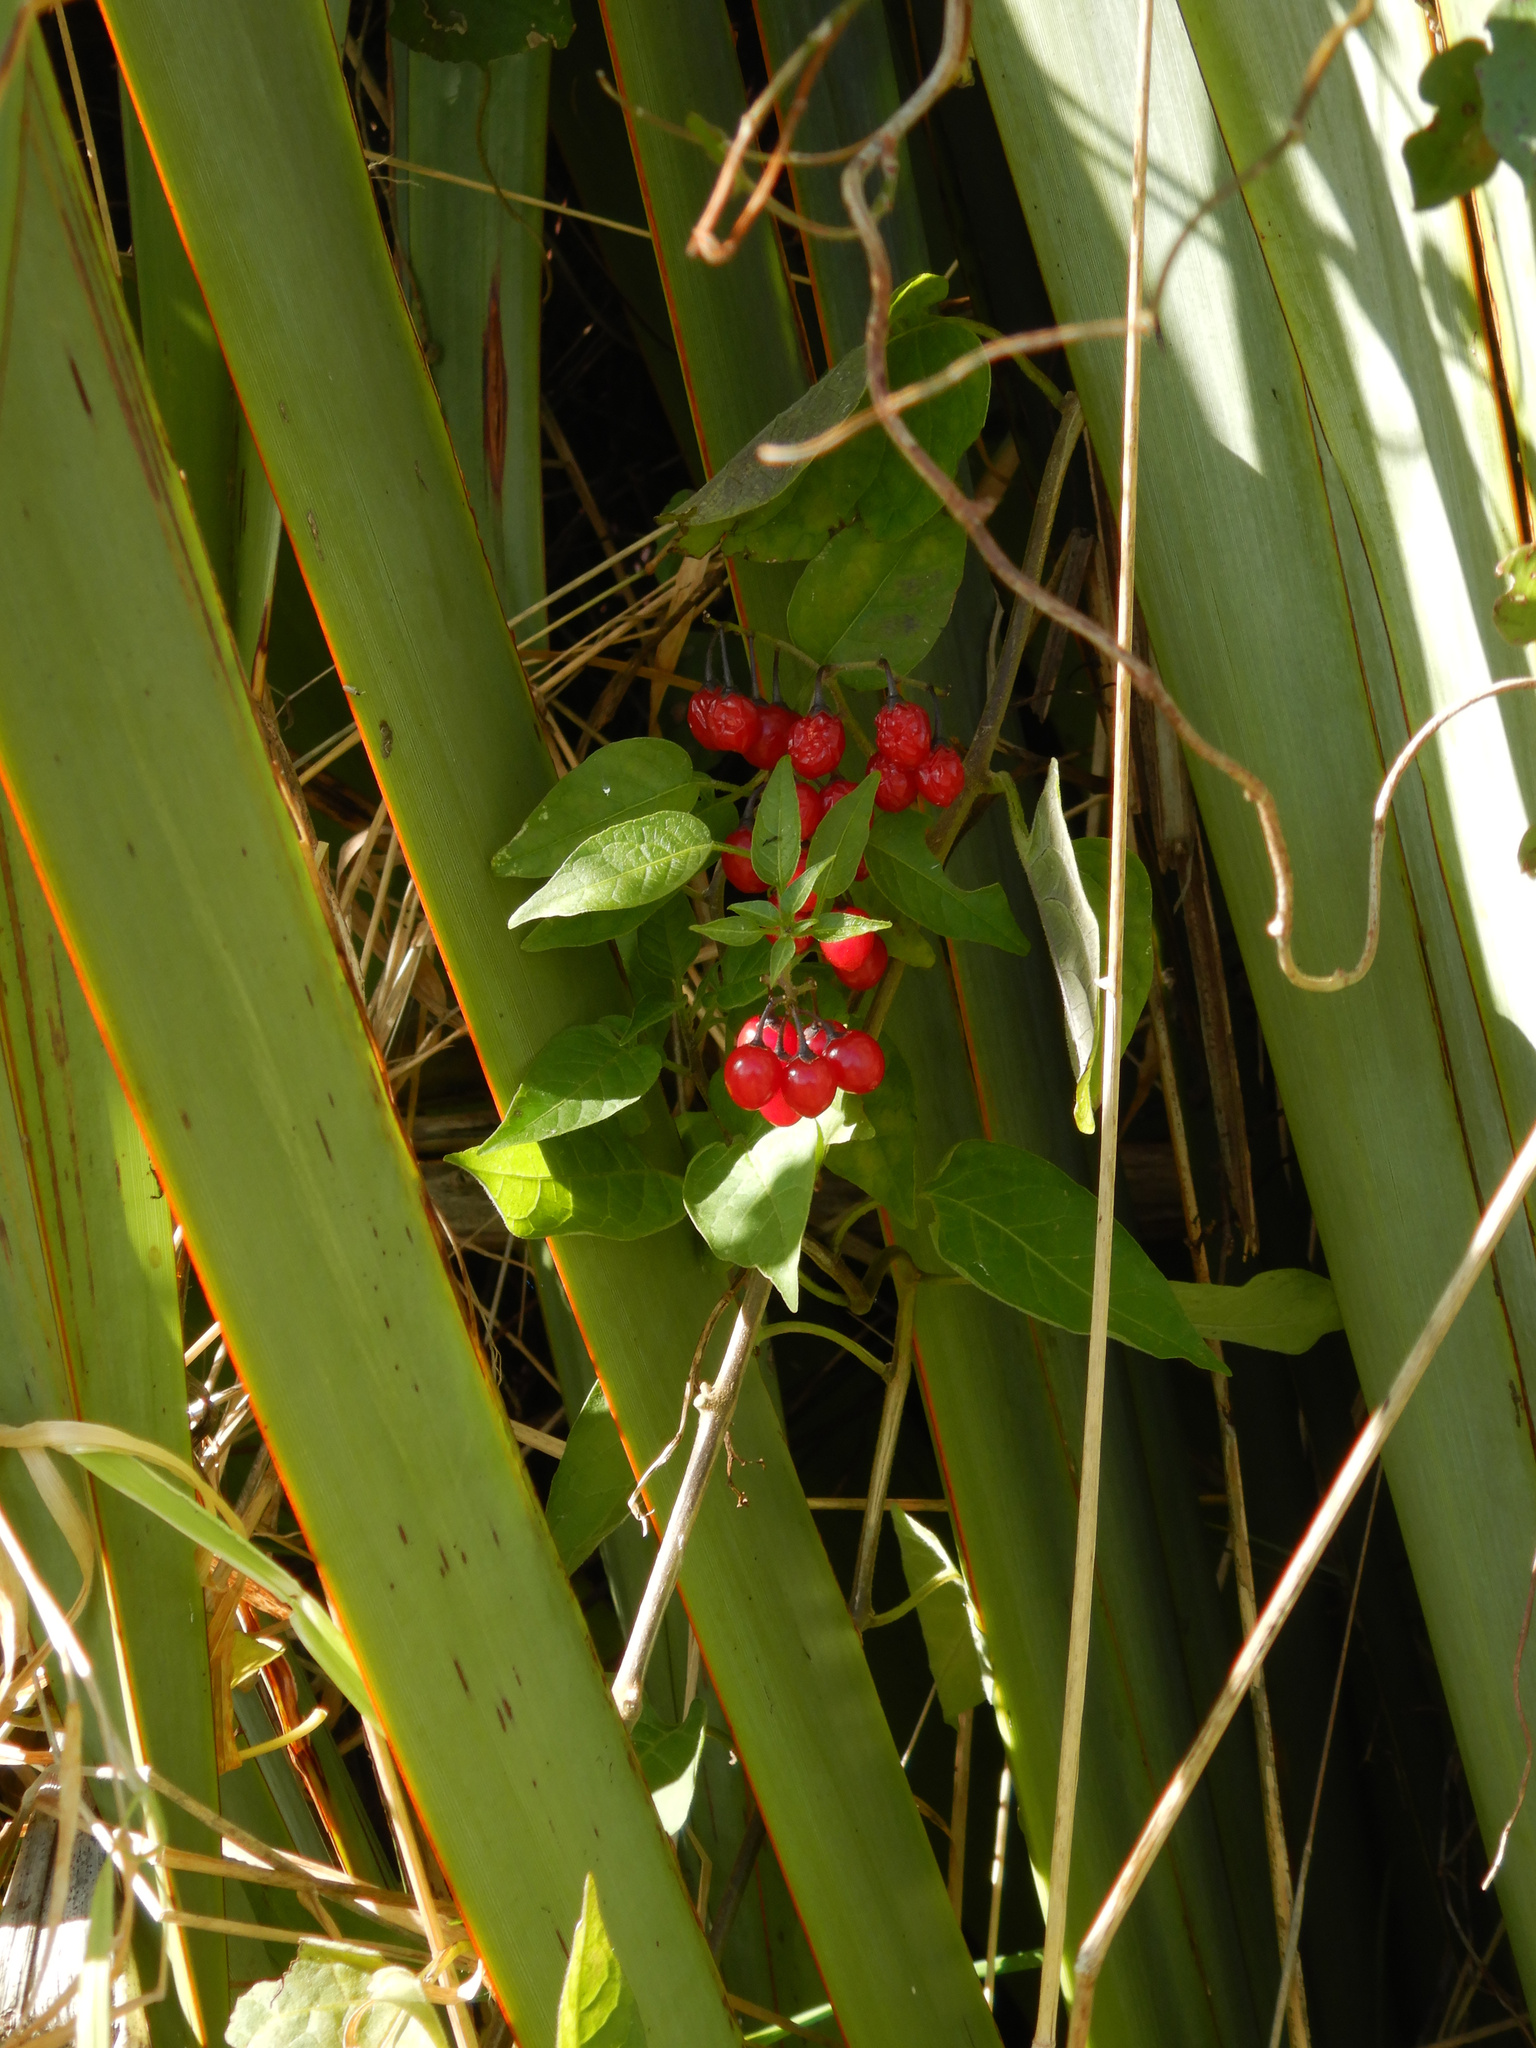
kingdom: Plantae
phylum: Tracheophyta
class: Magnoliopsida
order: Solanales
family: Solanaceae
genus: Solanum
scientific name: Solanum dulcamara
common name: Climbing nightshade
